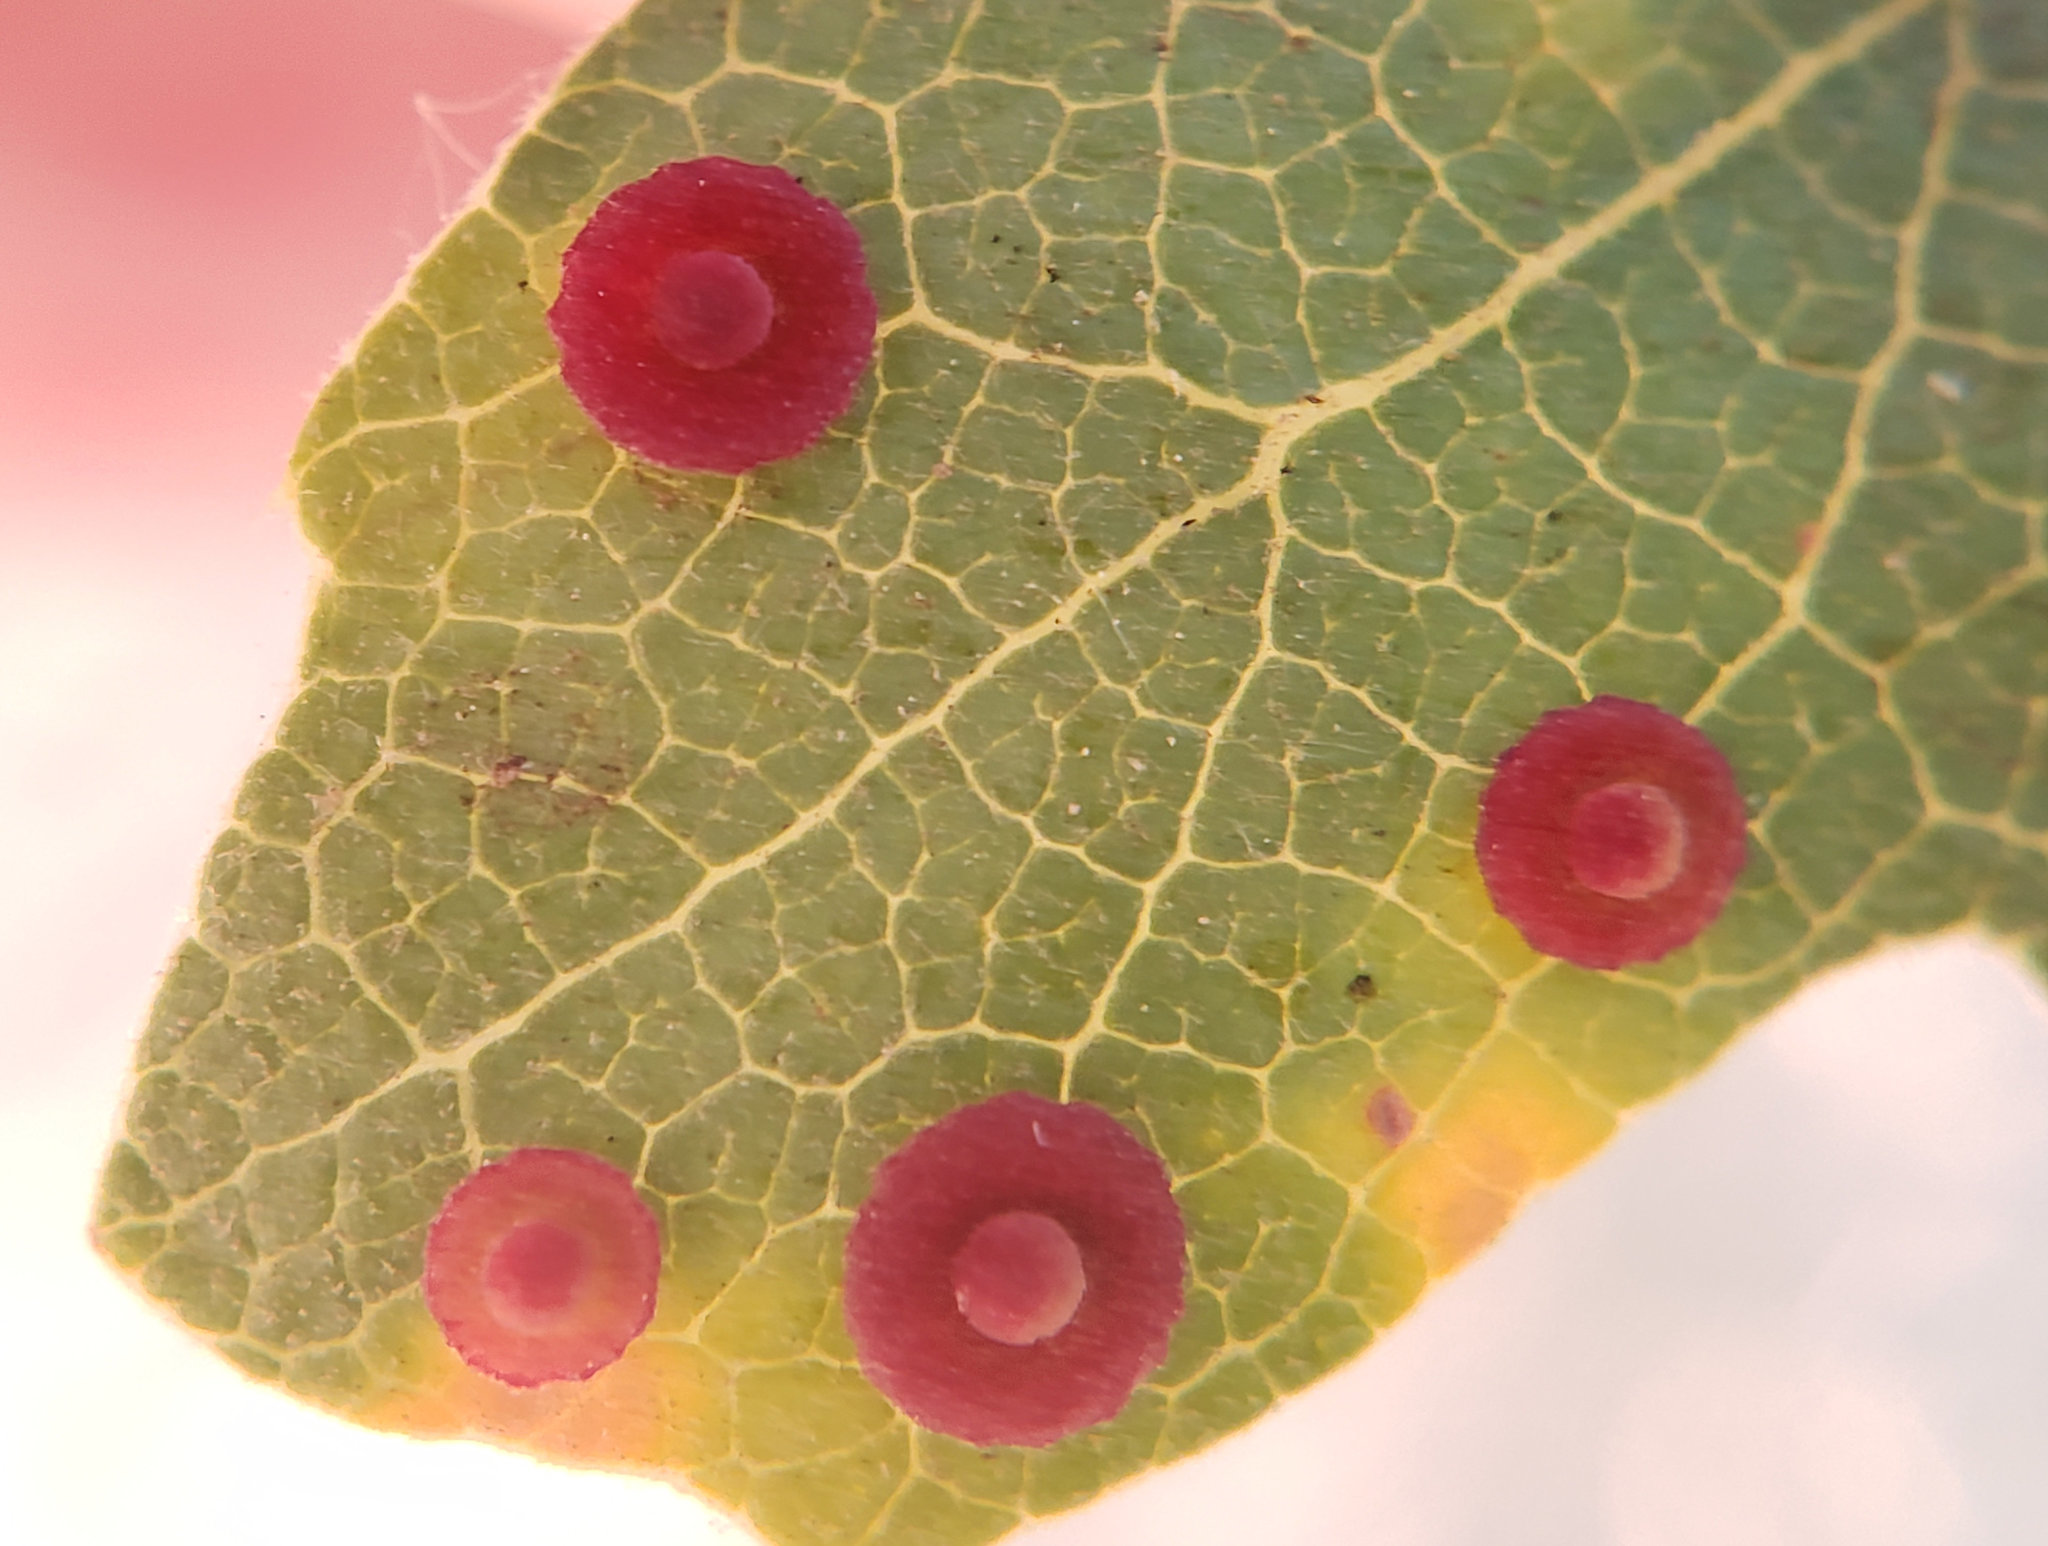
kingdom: Animalia
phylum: Arthropoda
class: Insecta
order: Hymenoptera
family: Cynipidae
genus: Andricus
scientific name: Andricus
